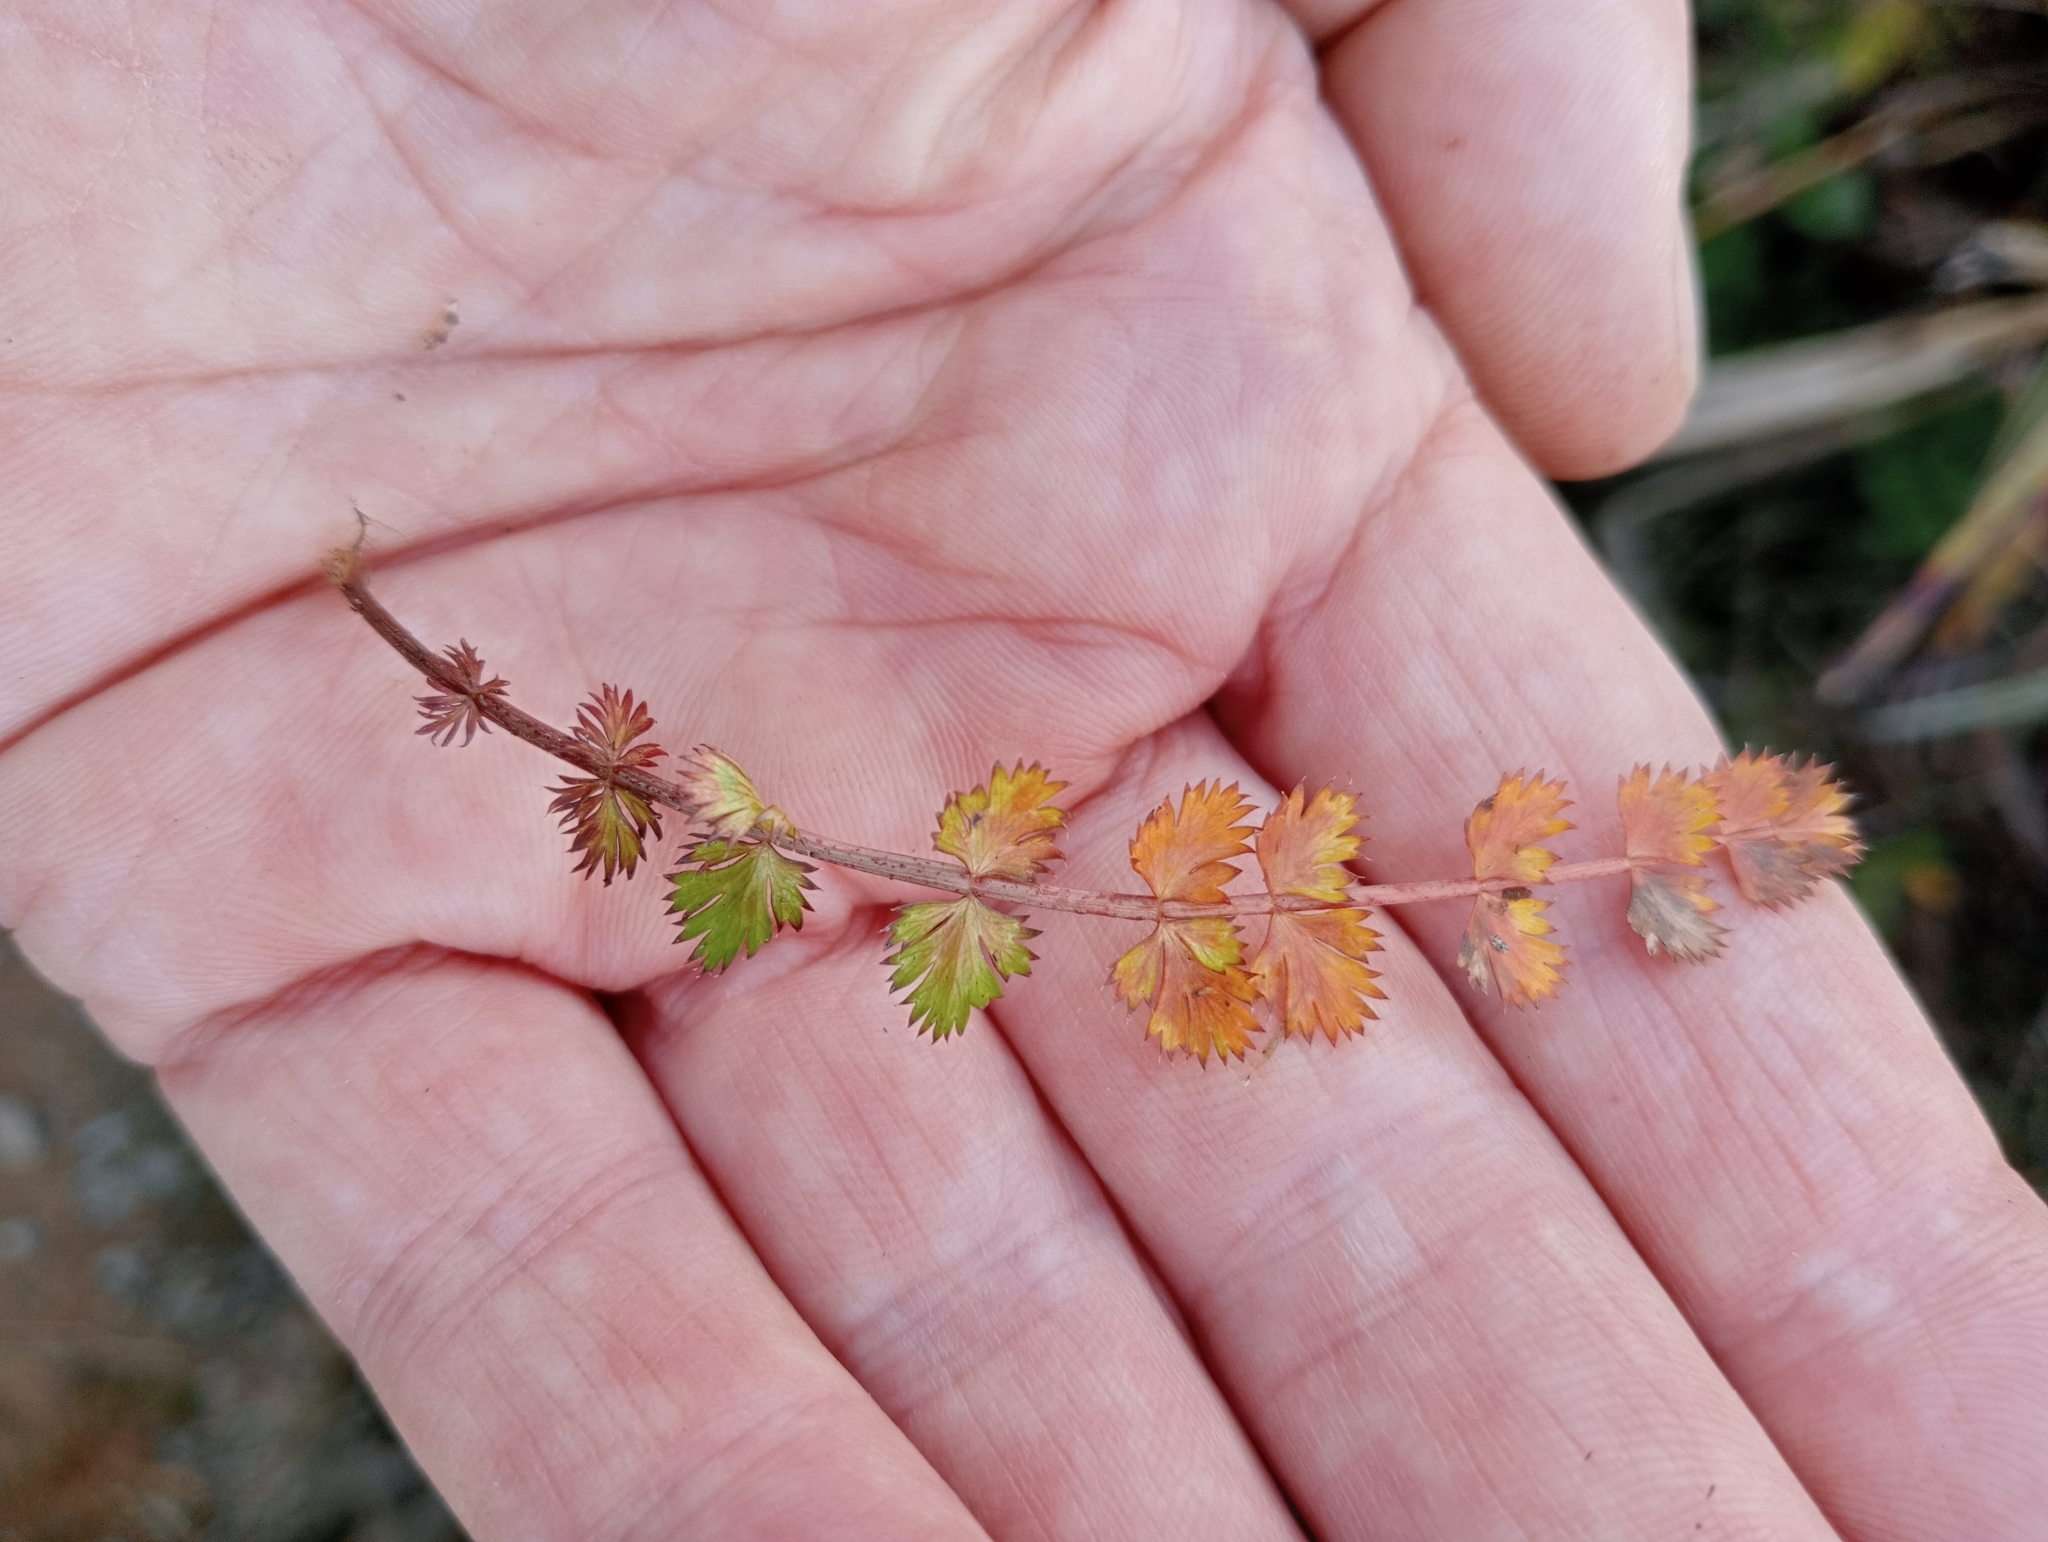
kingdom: Plantae
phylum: Tracheophyta
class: Magnoliopsida
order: Apiales
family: Apiaceae
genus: Anisotome
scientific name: Anisotome aromatica
